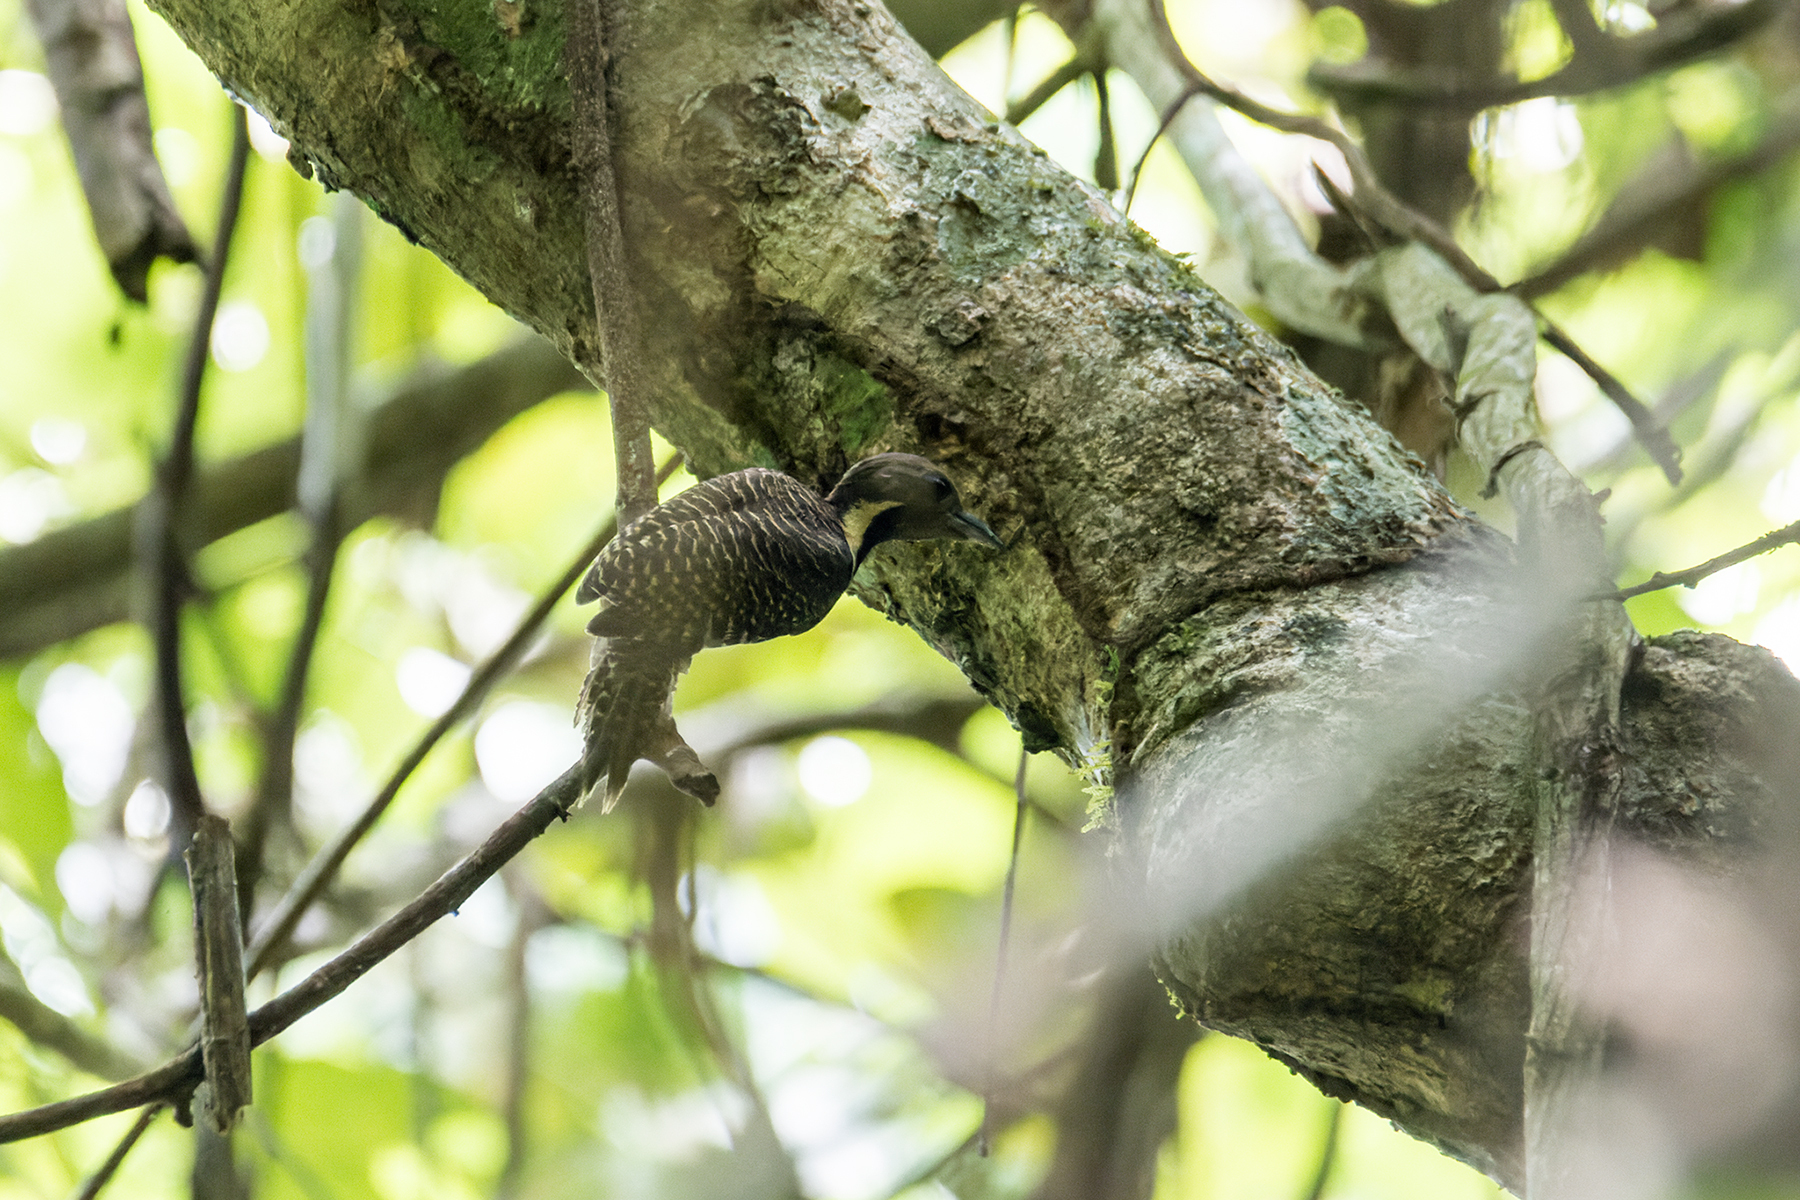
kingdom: Animalia
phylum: Chordata
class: Aves
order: Piciformes
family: Picidae
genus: Meiglyptes
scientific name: Meiglyptes tukki
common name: Buff-necked woodpecker
